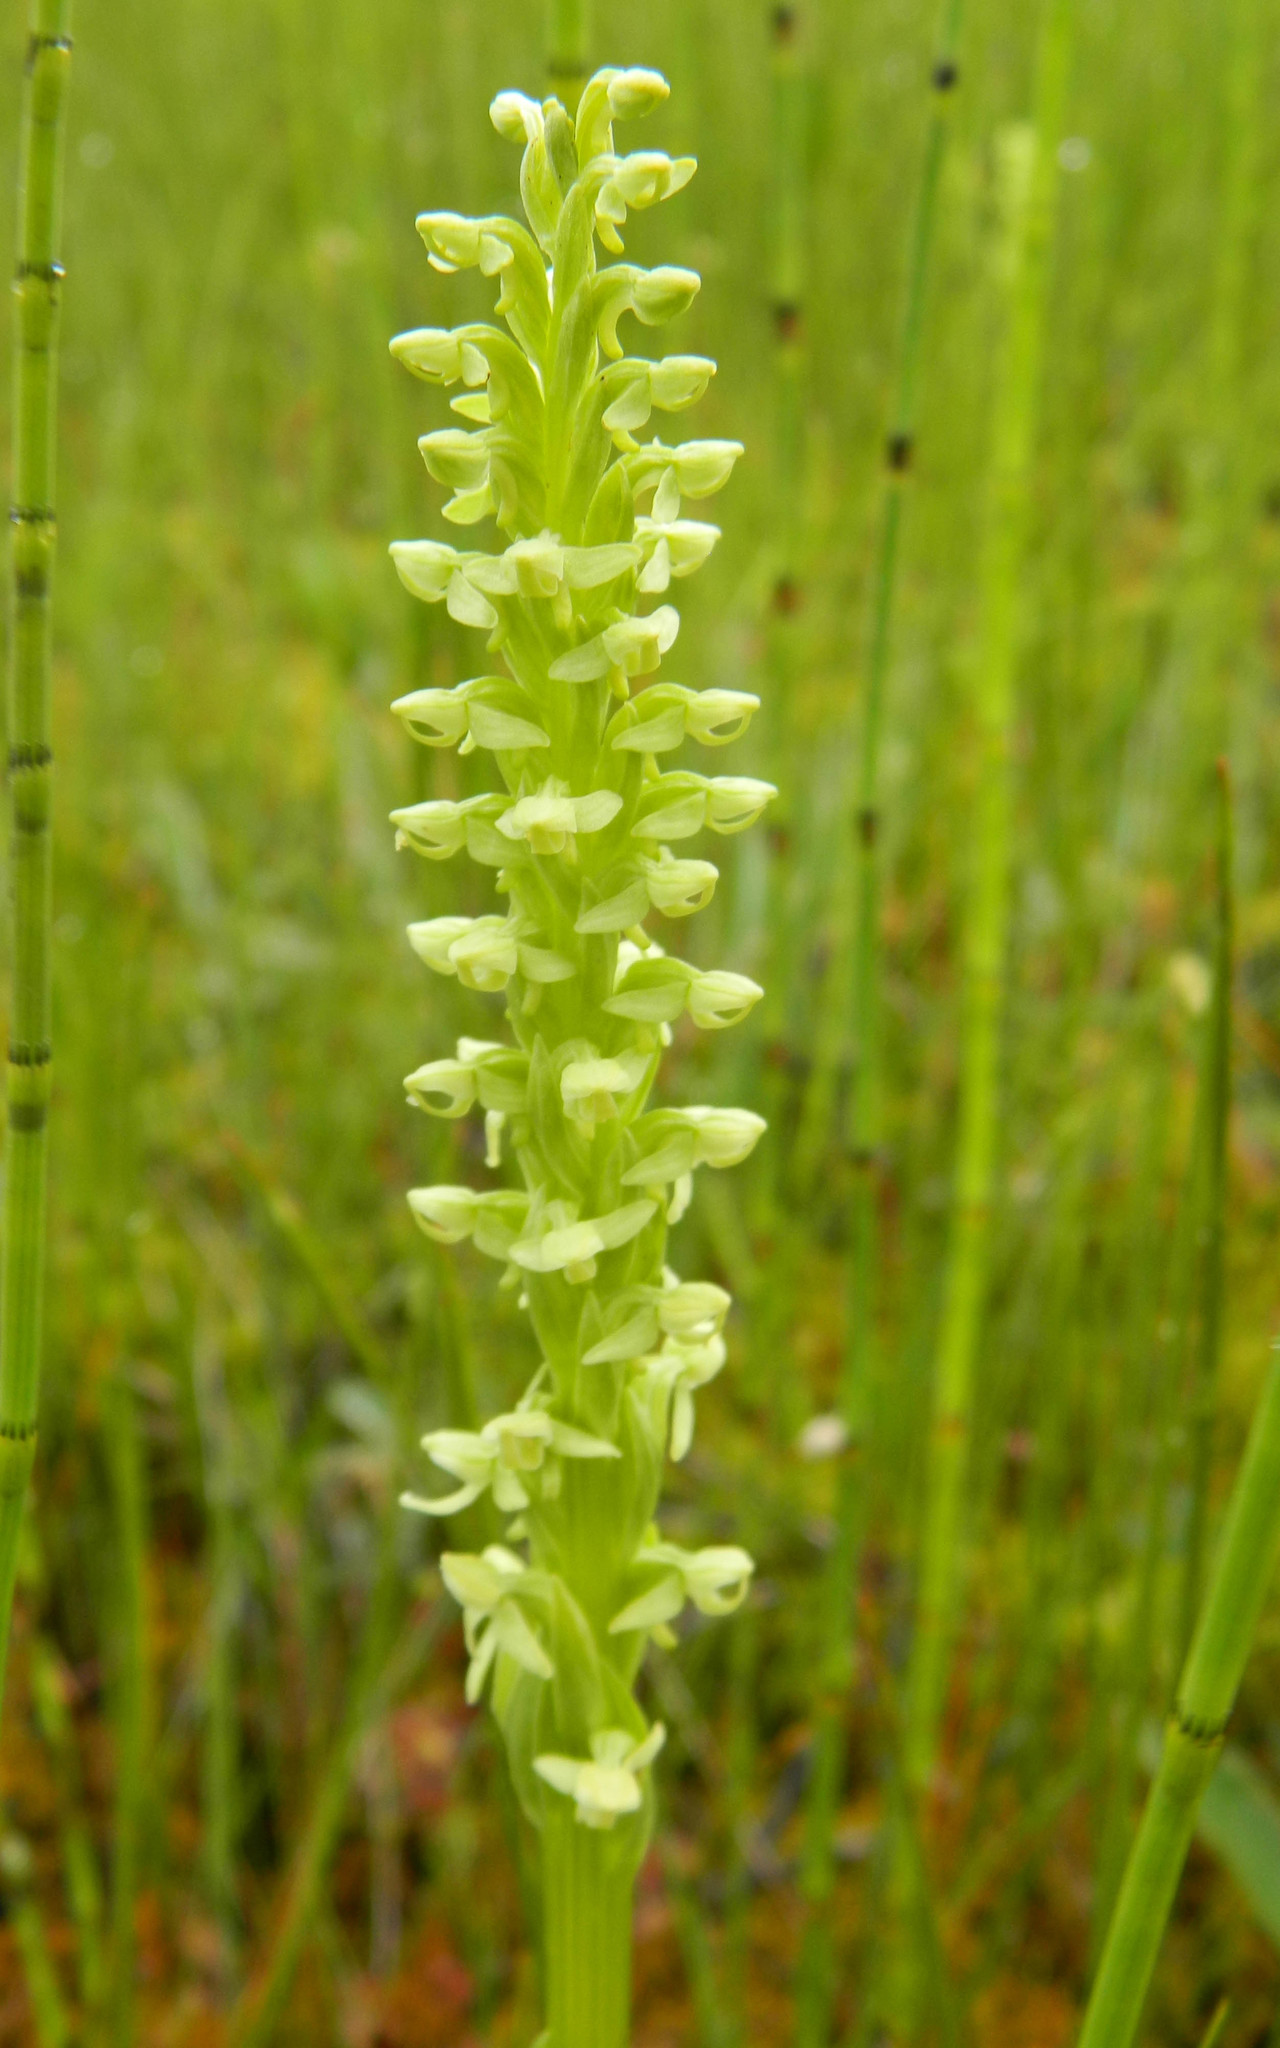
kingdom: Plantae
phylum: Tracheophyta
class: Liliopsida
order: Asparagales
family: Orchidaceae
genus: Platanthera
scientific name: Platanthera huronensis
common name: Fragrant green orchid
